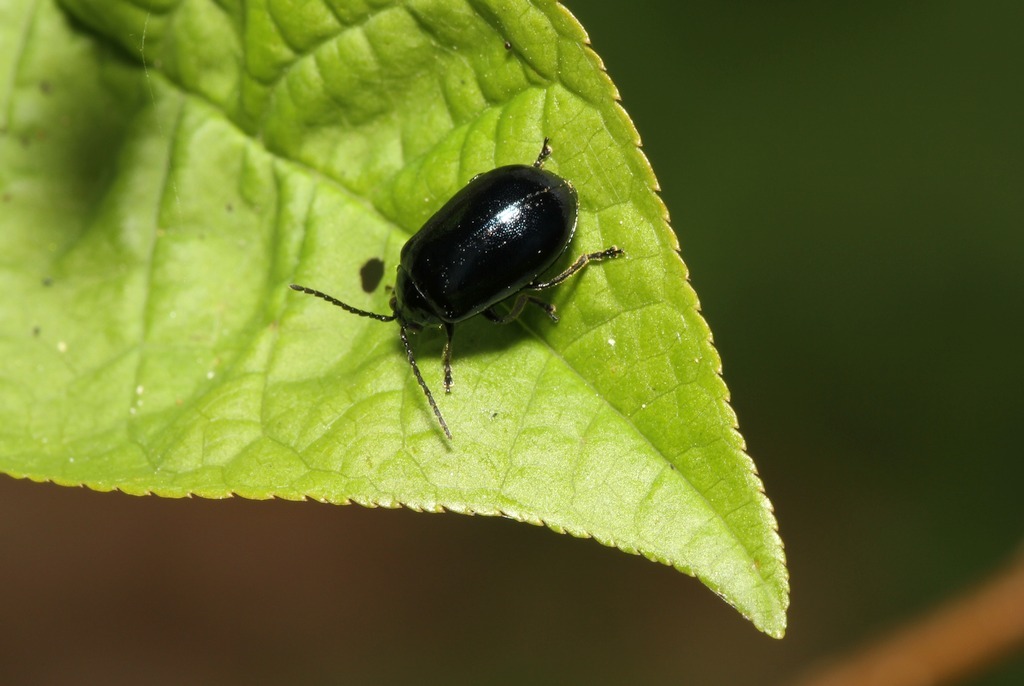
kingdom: Animalia
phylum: Arthropoda
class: Insecta
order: Coleoptera
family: Chrysomelidae
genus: Agelastica
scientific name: Agelastica alni
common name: Alder leaf beetle
